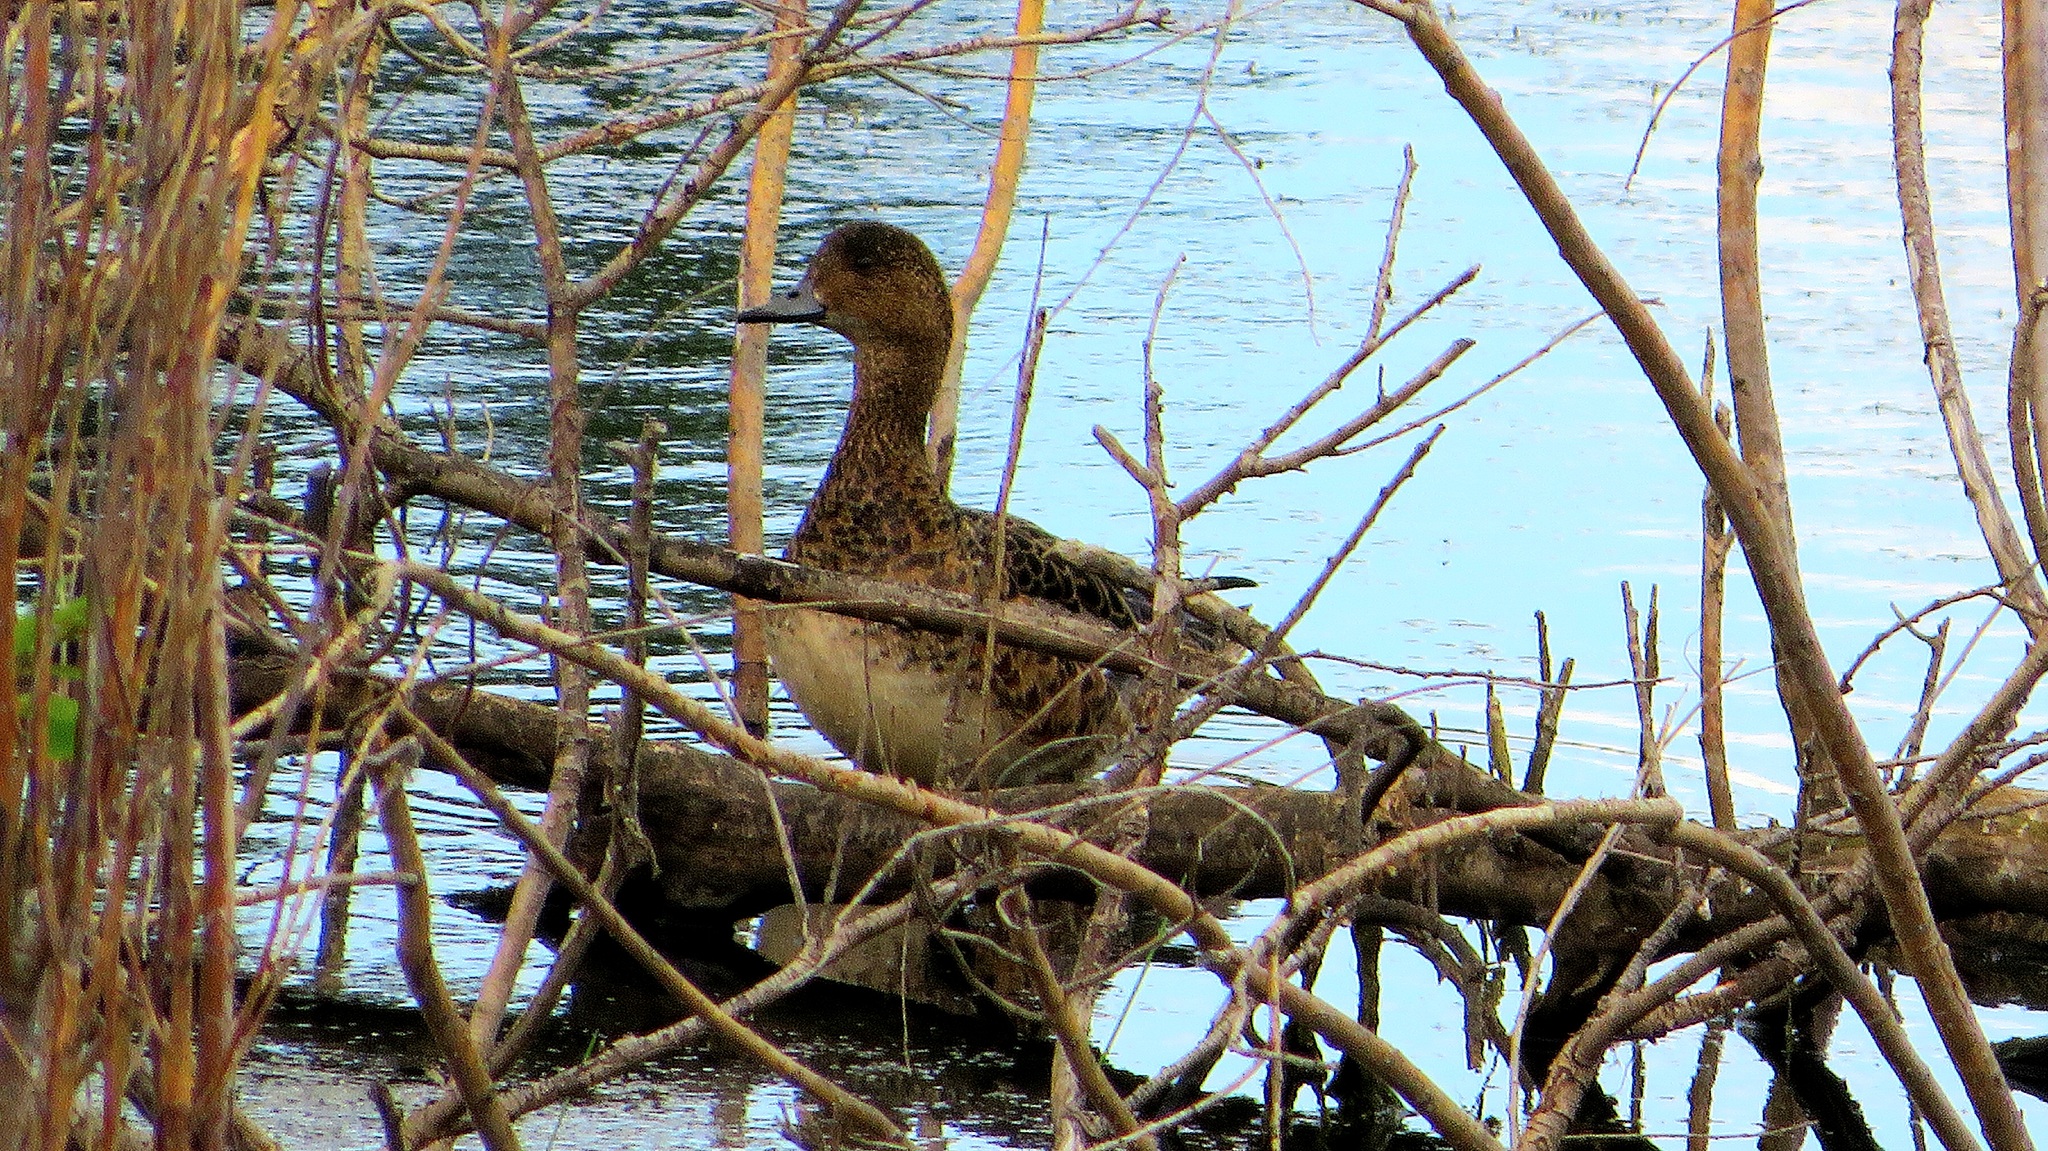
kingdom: Animalia
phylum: Chordata
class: Aves
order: Anseriformes
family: Anatidae
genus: Mareca
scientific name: Mareca penelope
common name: Eurasian wigeon
